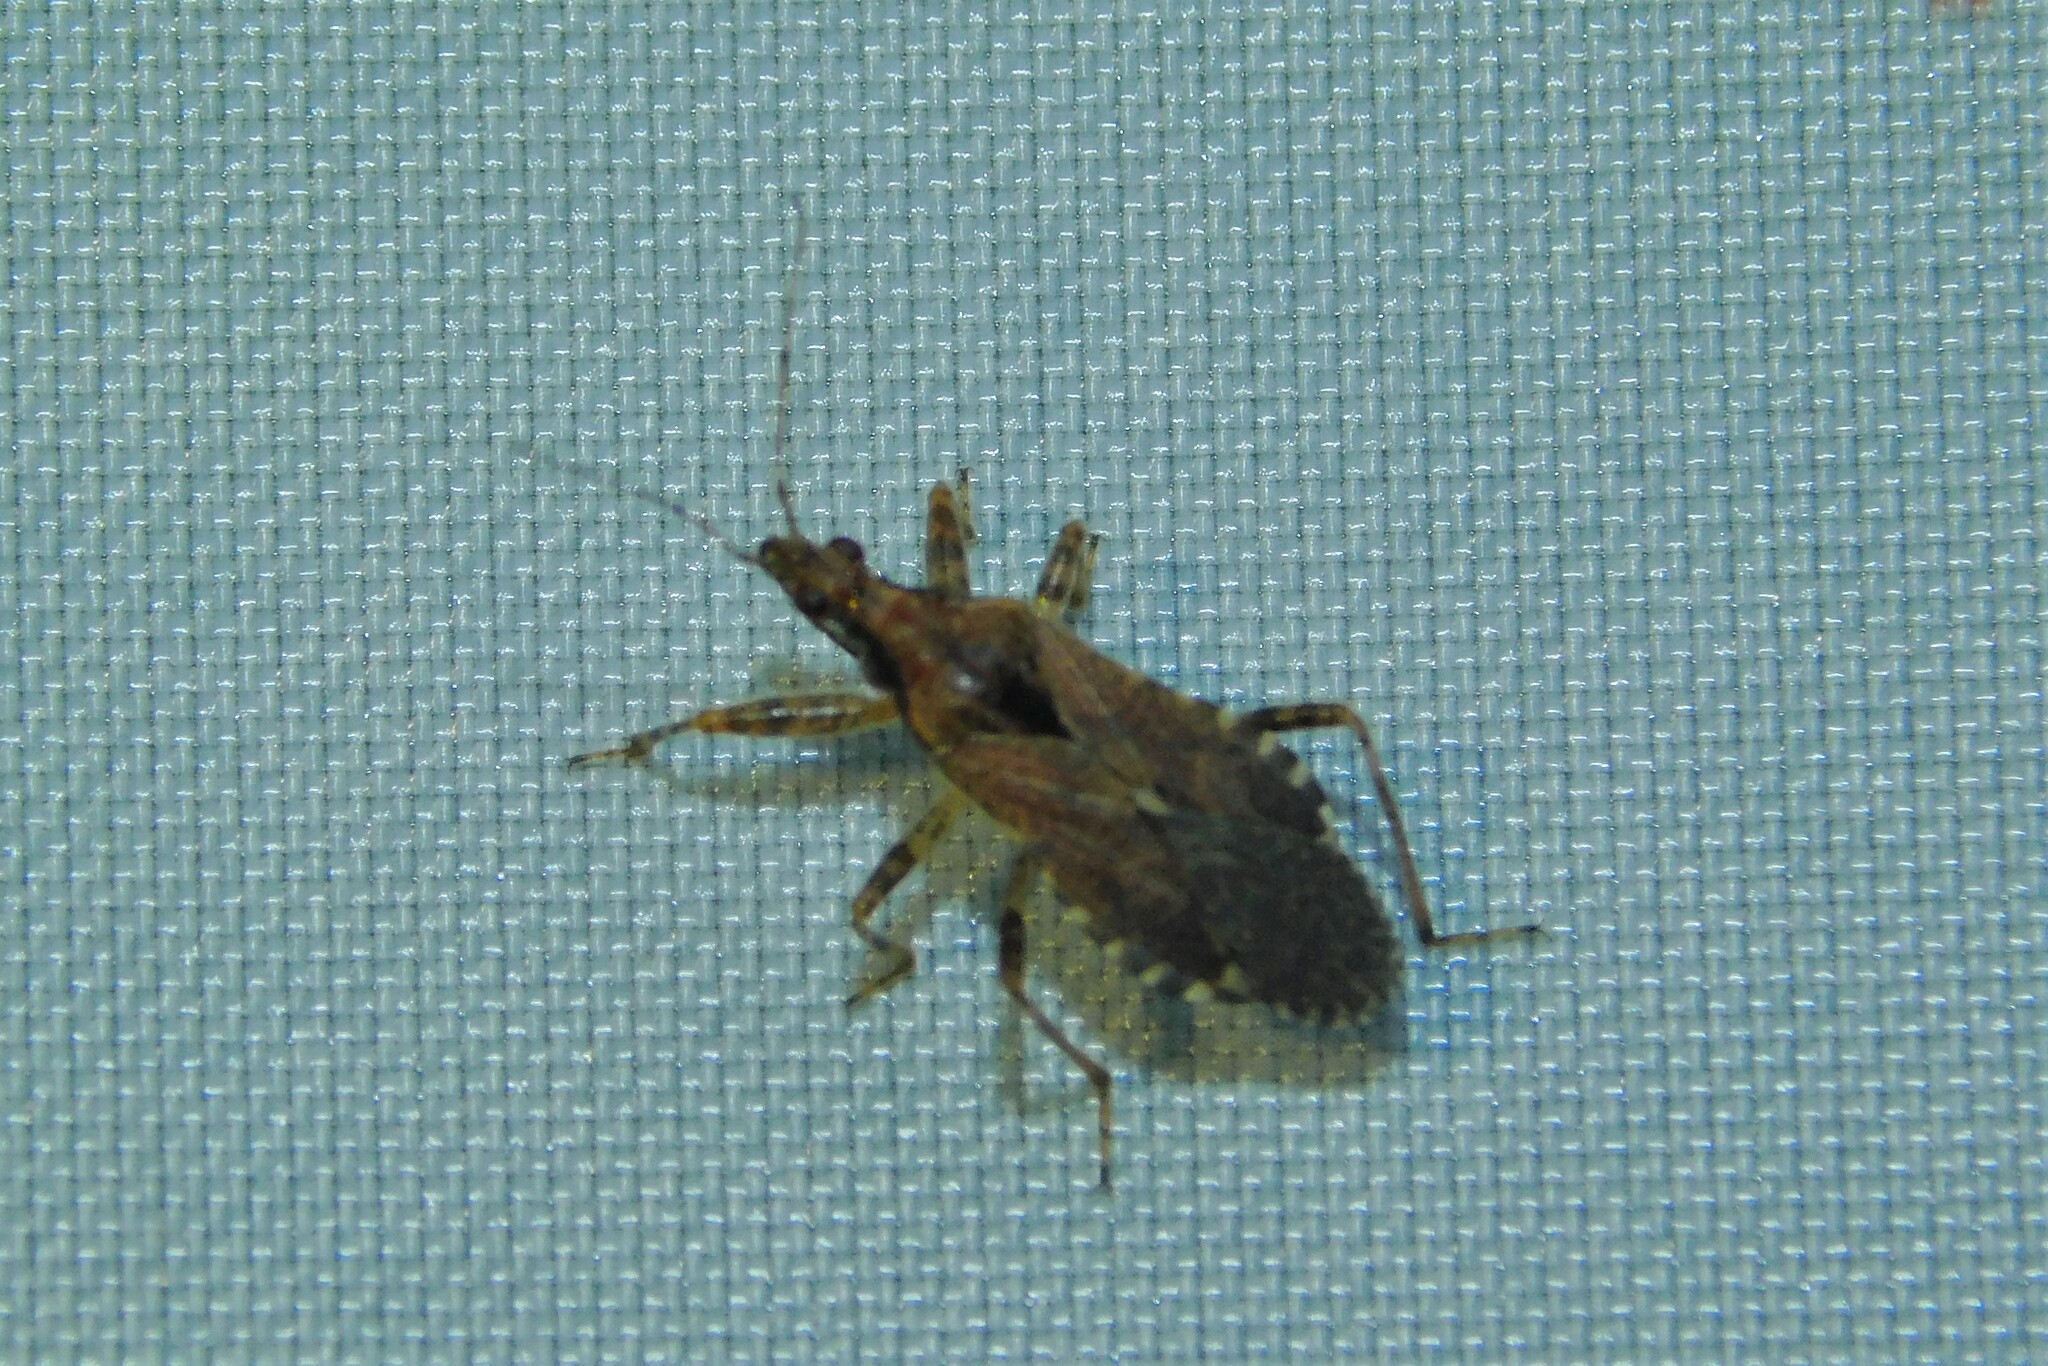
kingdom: Animalia
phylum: Arthropoda
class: Insecta
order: Hemiptera
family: Nabidae
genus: Himacerus
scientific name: Himacerus mirmicoides
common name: Ant damsel bug
